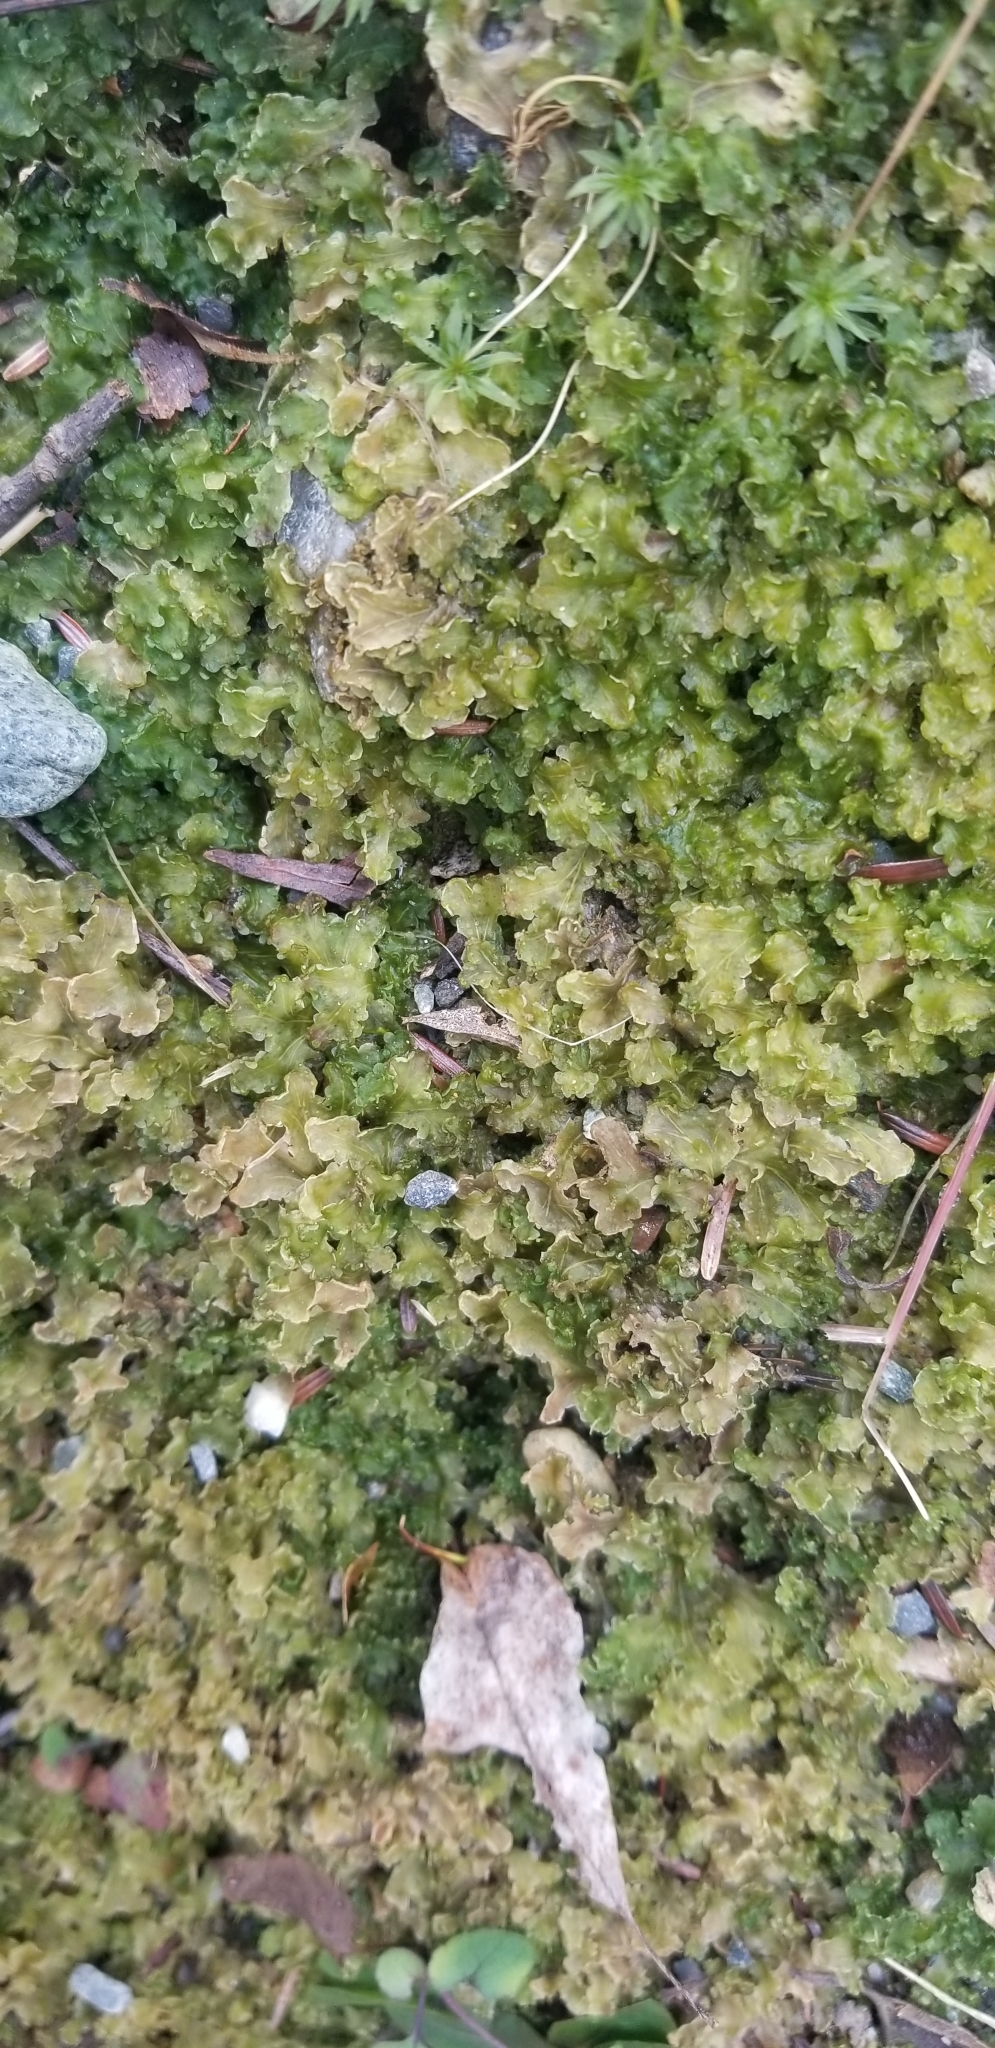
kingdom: Plantae
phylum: Marchantiophyta
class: Marchantiopsida
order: Blasiales
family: Blasiaceae
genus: Blasia
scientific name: Blasia pusilla
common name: Common kettlewort
